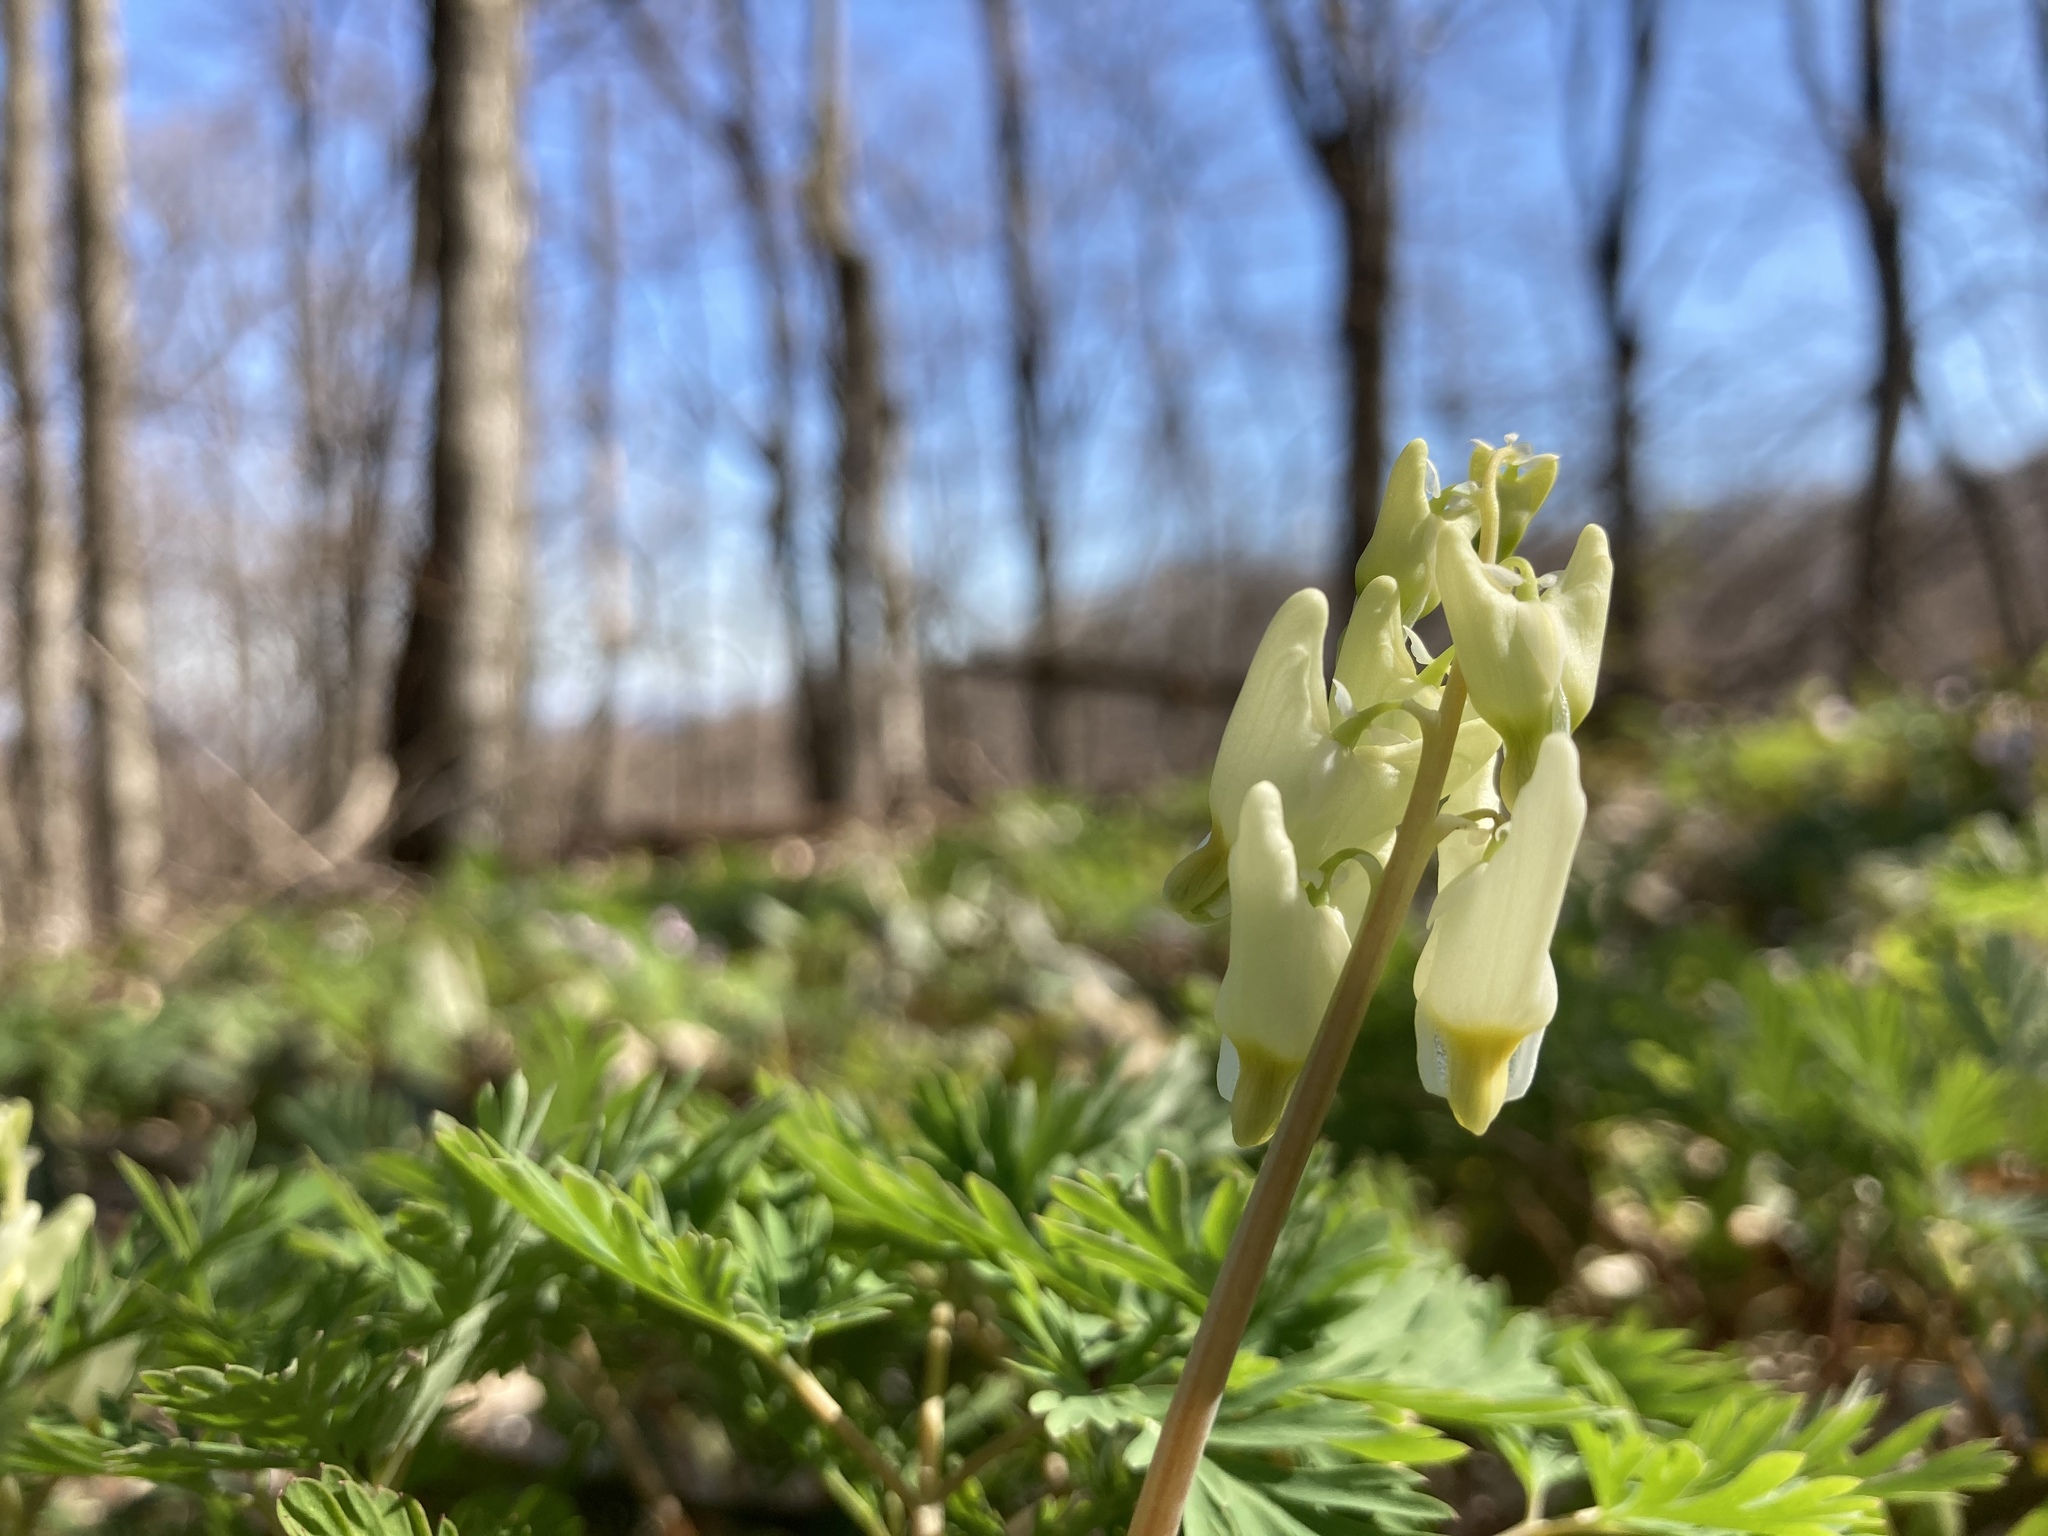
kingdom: Plantae
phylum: Tracheophyta
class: Magnoliopsida
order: Ranunculales
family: Papaveraceae
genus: Dicentra
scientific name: Dicentra cucullaria
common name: Dutchman's breeches
